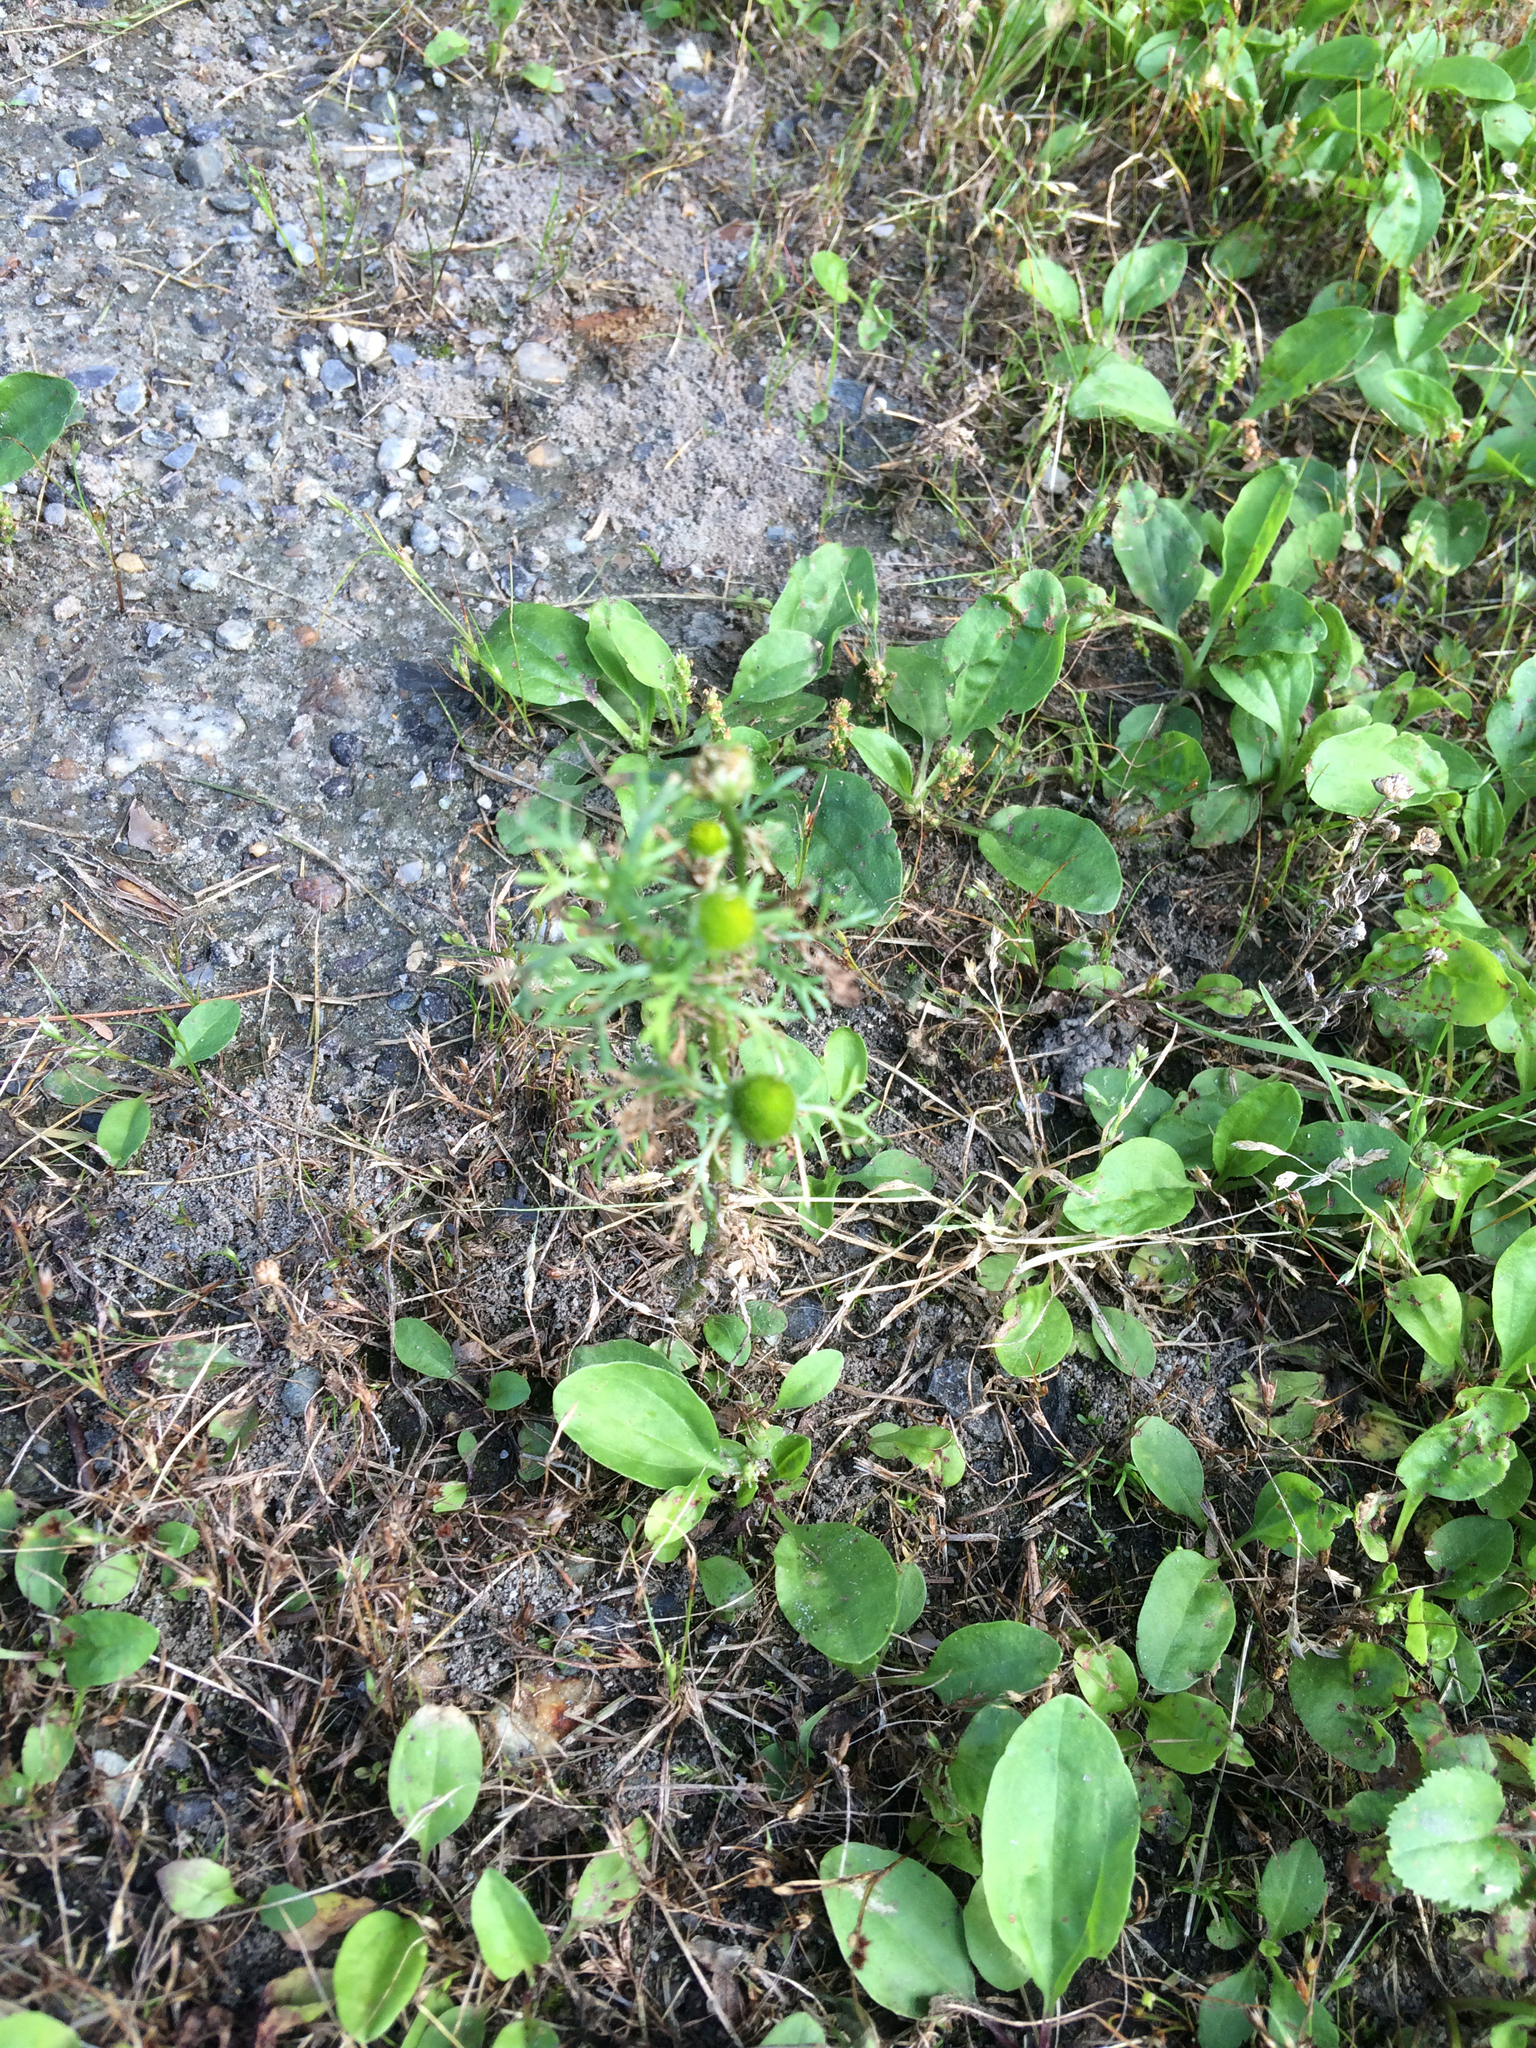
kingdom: Plantae
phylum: Tracheophyta
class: Magnoliopsida
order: Asterales
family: Asteraceae
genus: Matricaria
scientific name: Matricaria discoidea
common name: Disc mayweed
